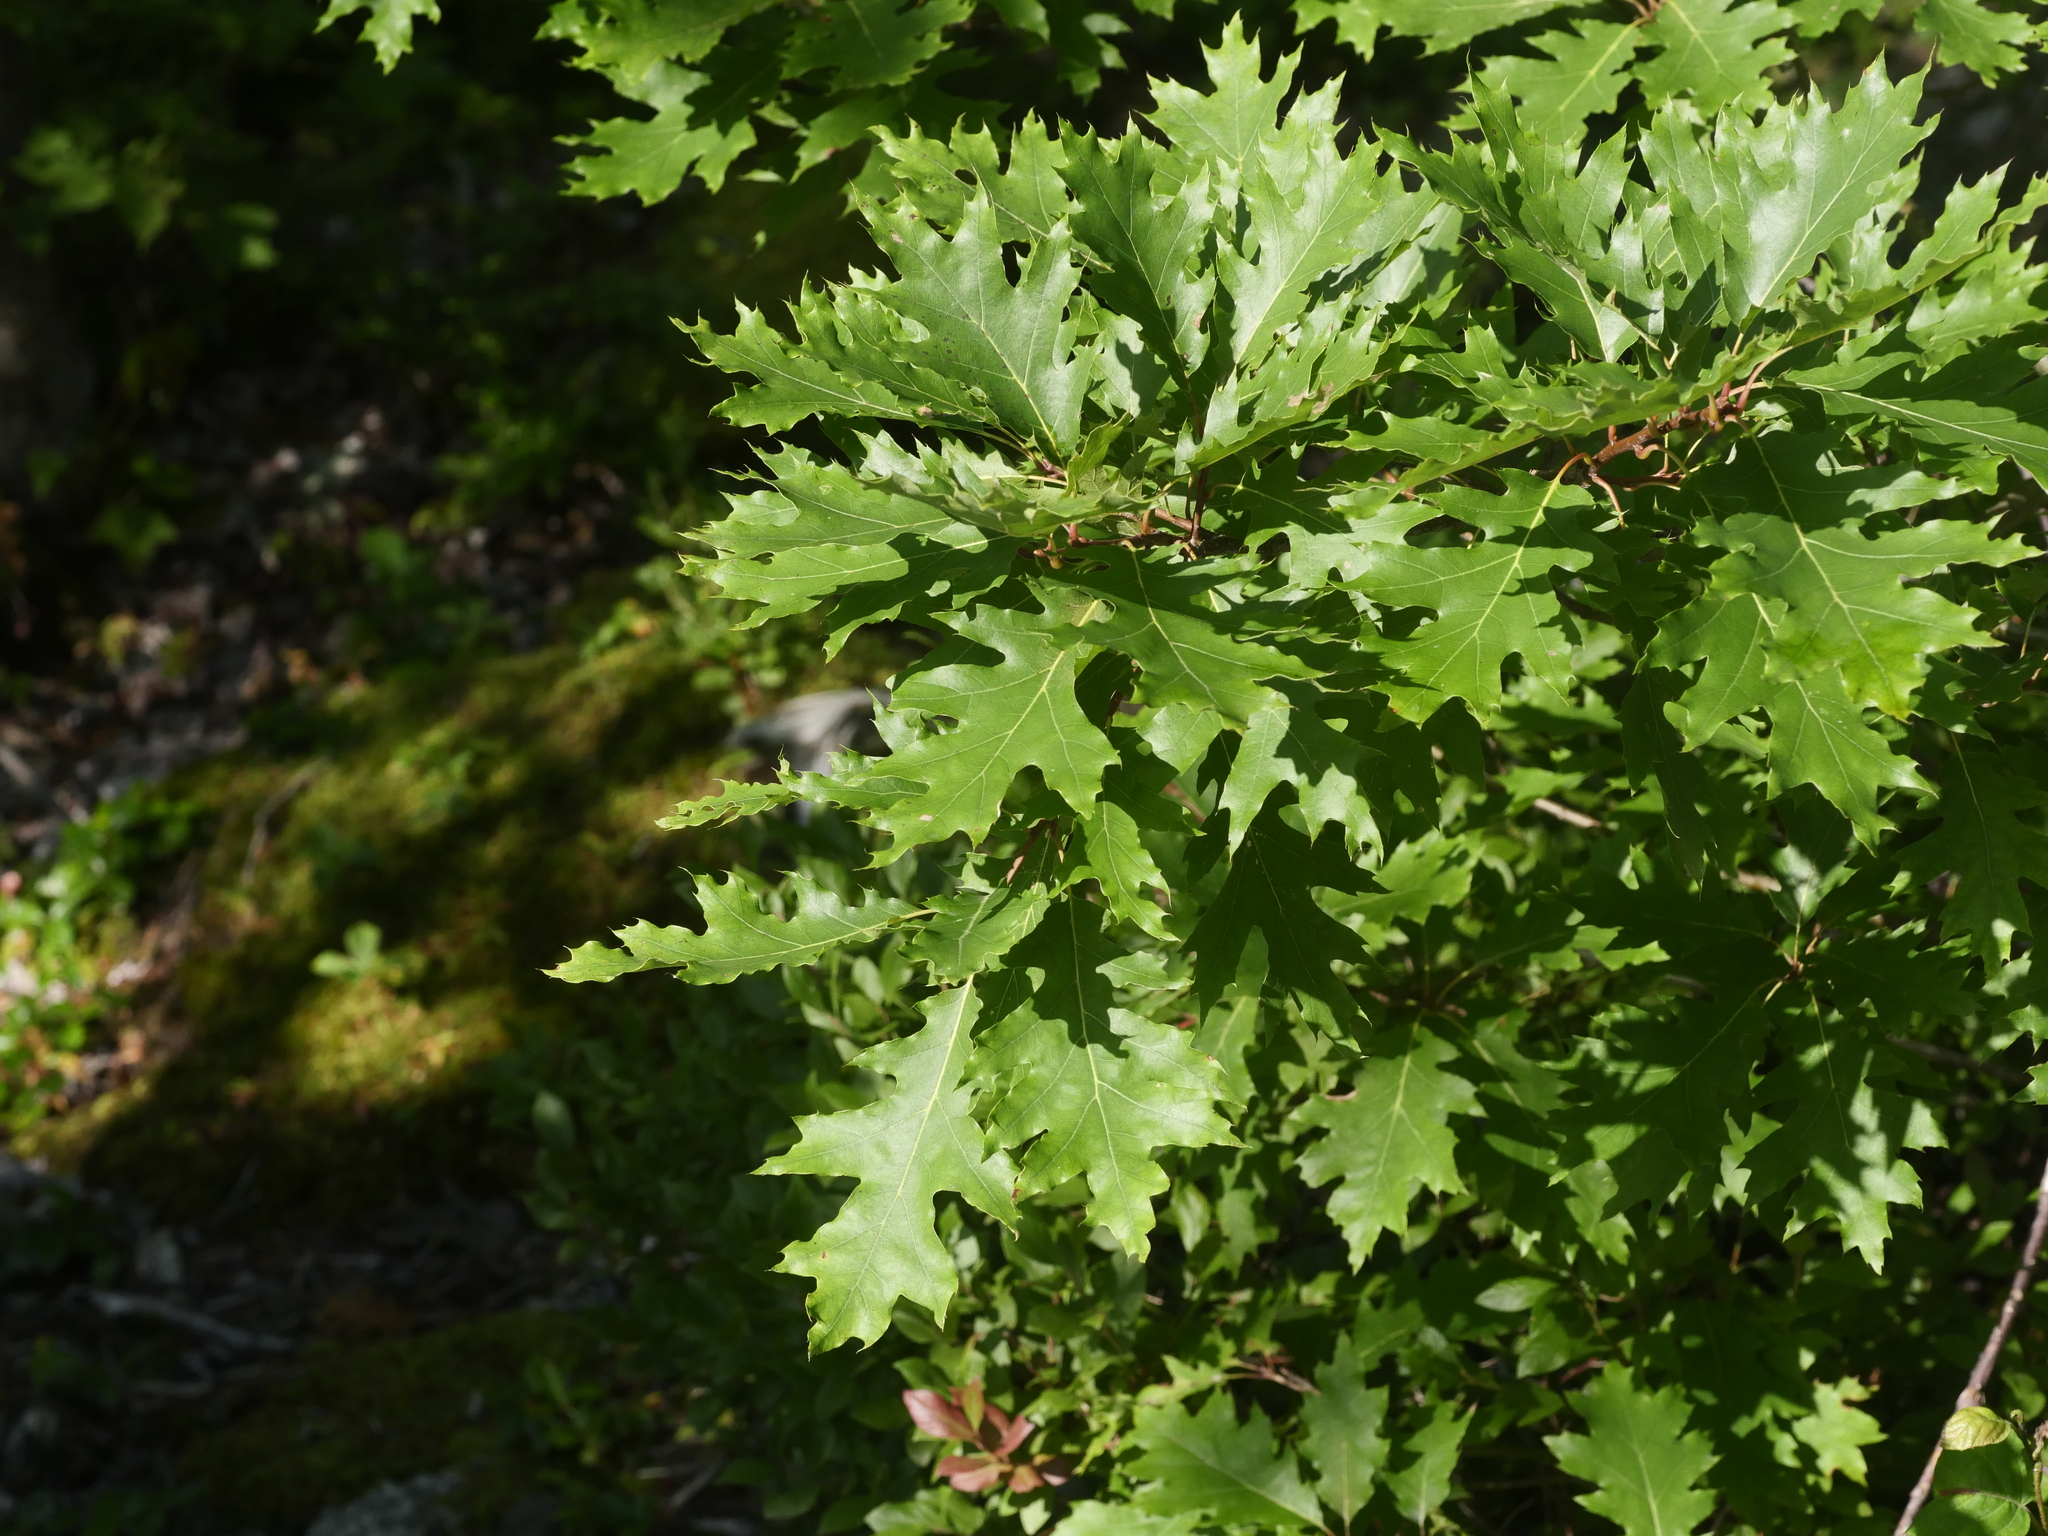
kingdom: Plantae
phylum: Tracheophyta
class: Magnoliopsida
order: Fagales
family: Fagaceae
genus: Quercus
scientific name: Quercus rubra
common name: Red oak
